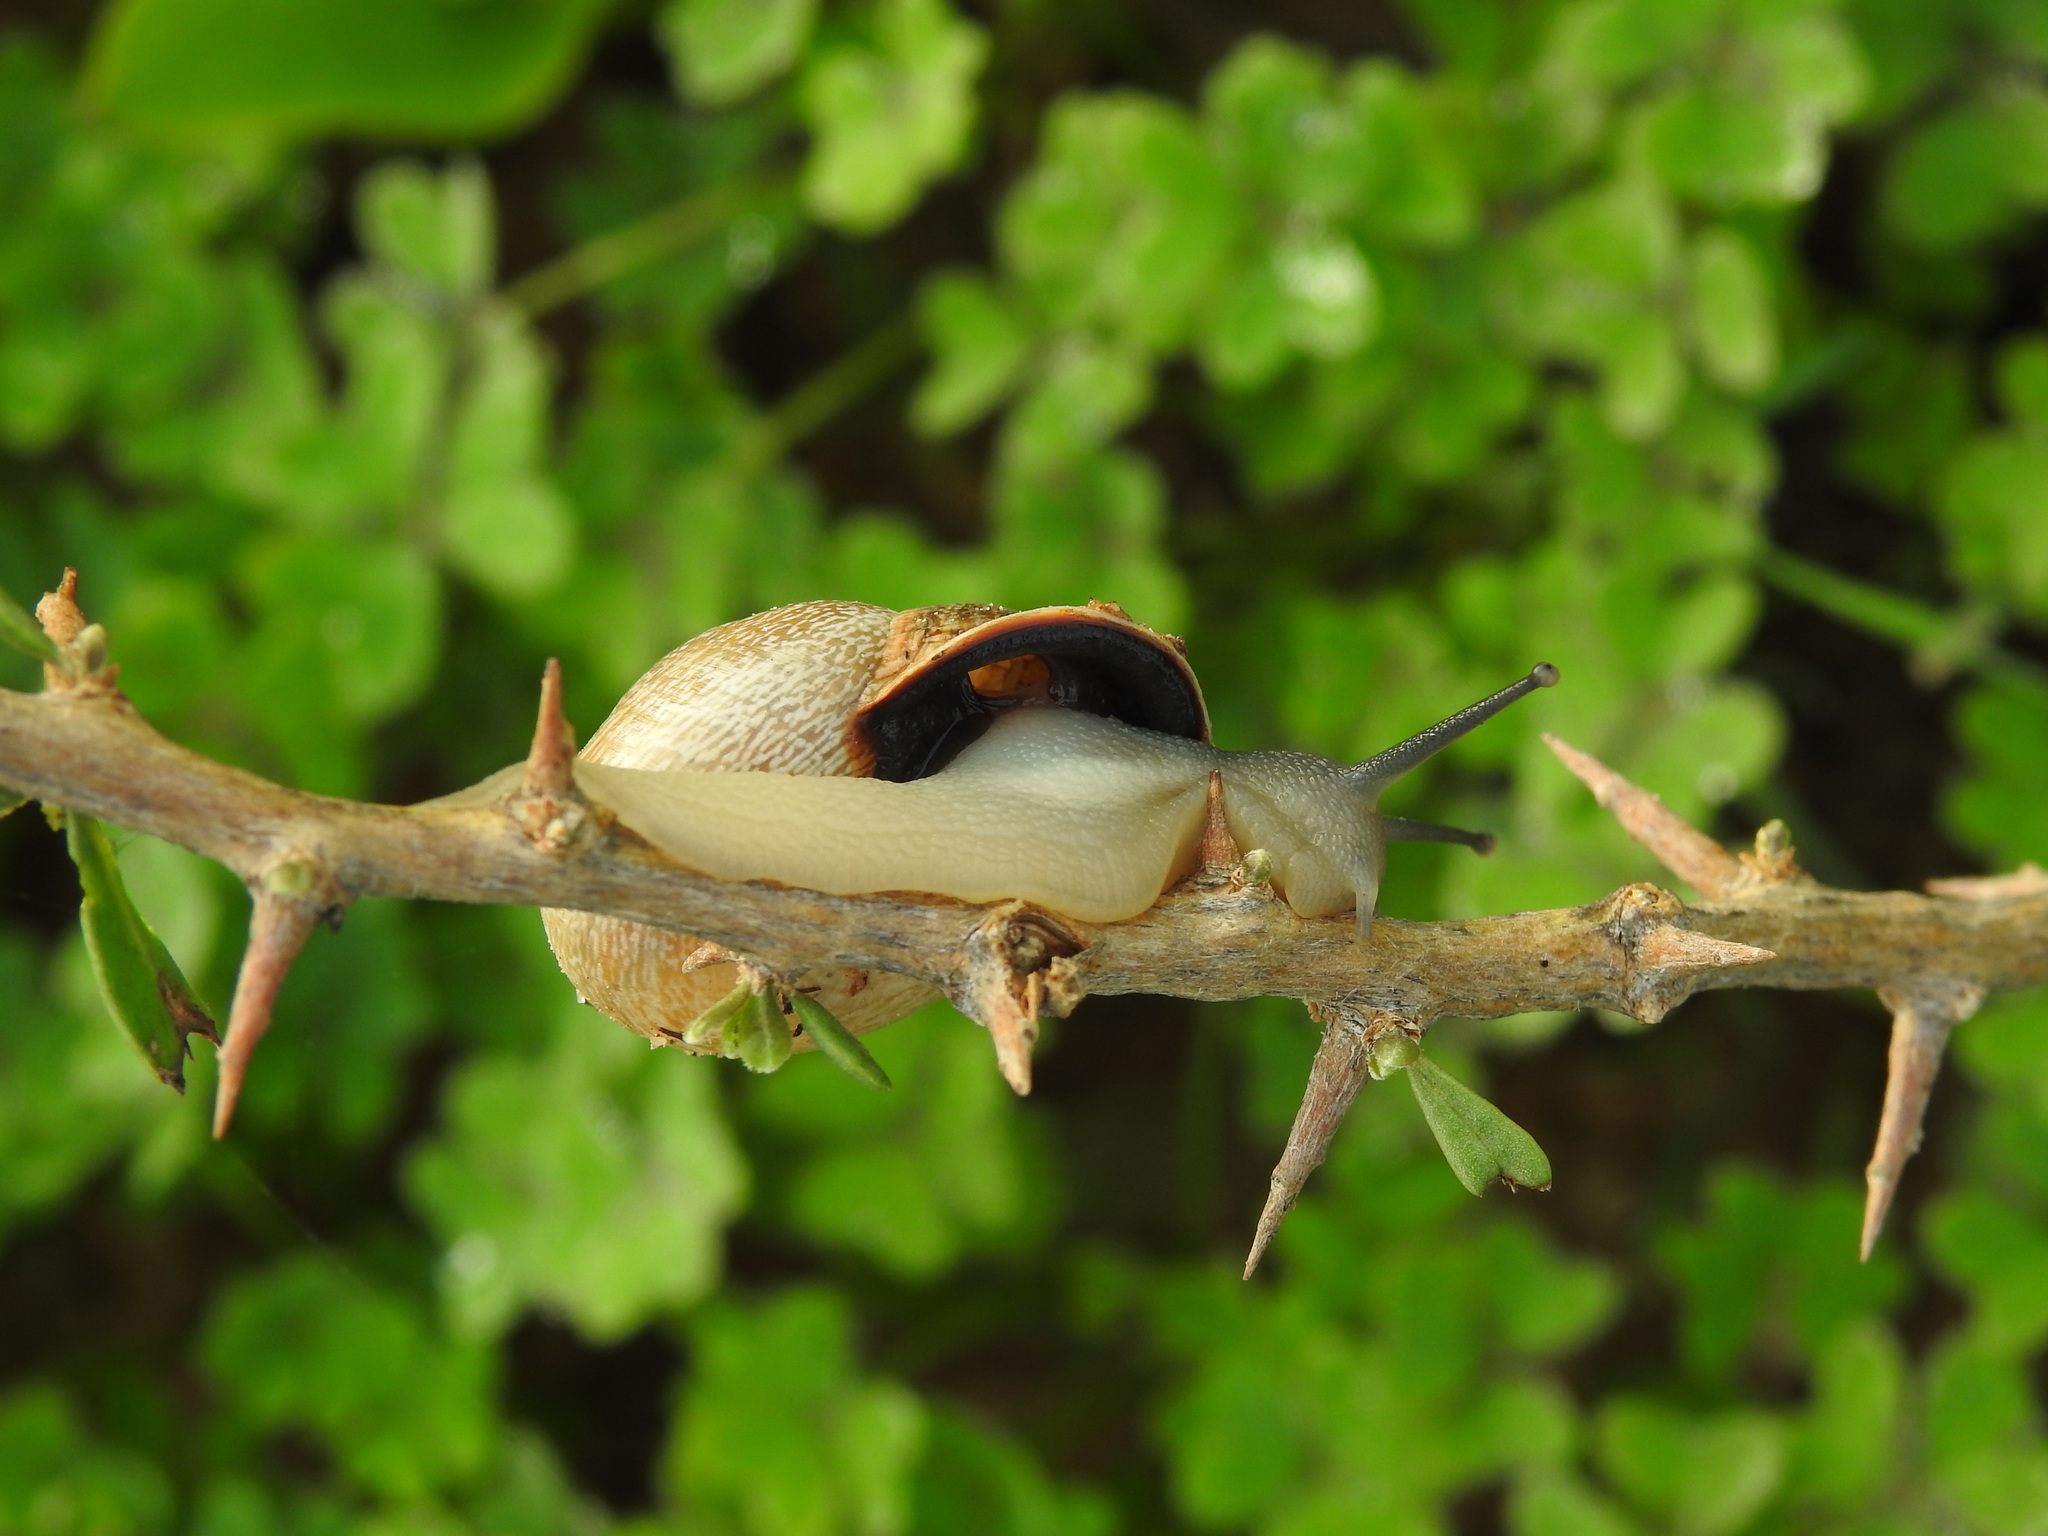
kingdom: Animalia
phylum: Mollusca
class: Gastropoda
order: Stylommatophora
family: Helicidae
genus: Otala
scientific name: Otala lactea
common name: Milk snail
